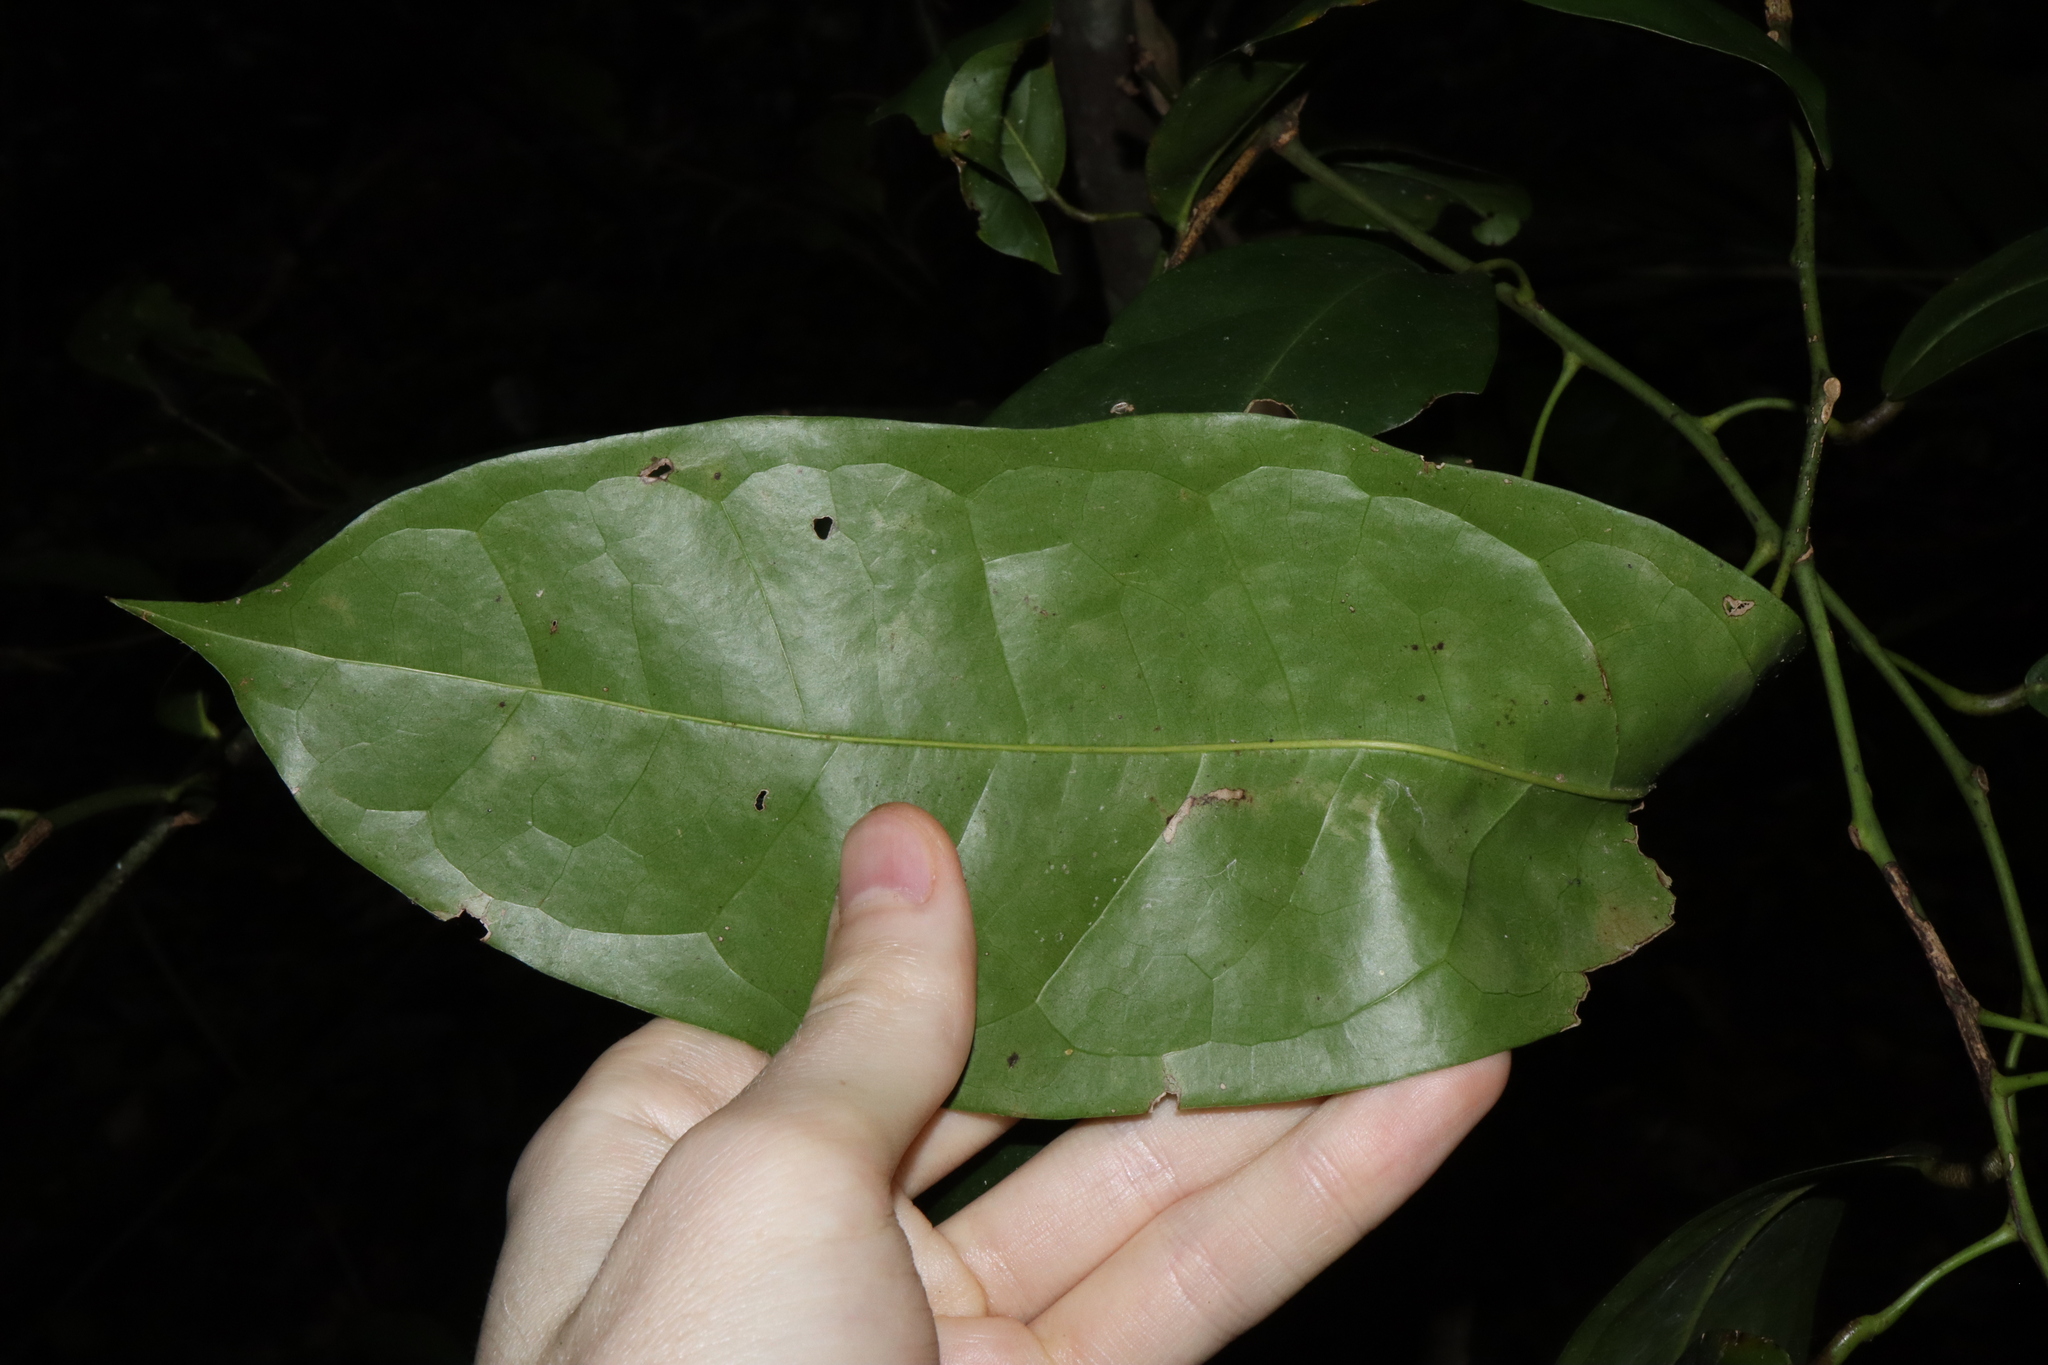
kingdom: Plantae
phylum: Tracheophyta
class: Magnoliopsida
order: Ranunculales
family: Menispermaceae
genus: Pycnarrhena
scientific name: Pycnarrhena novoguineensis
